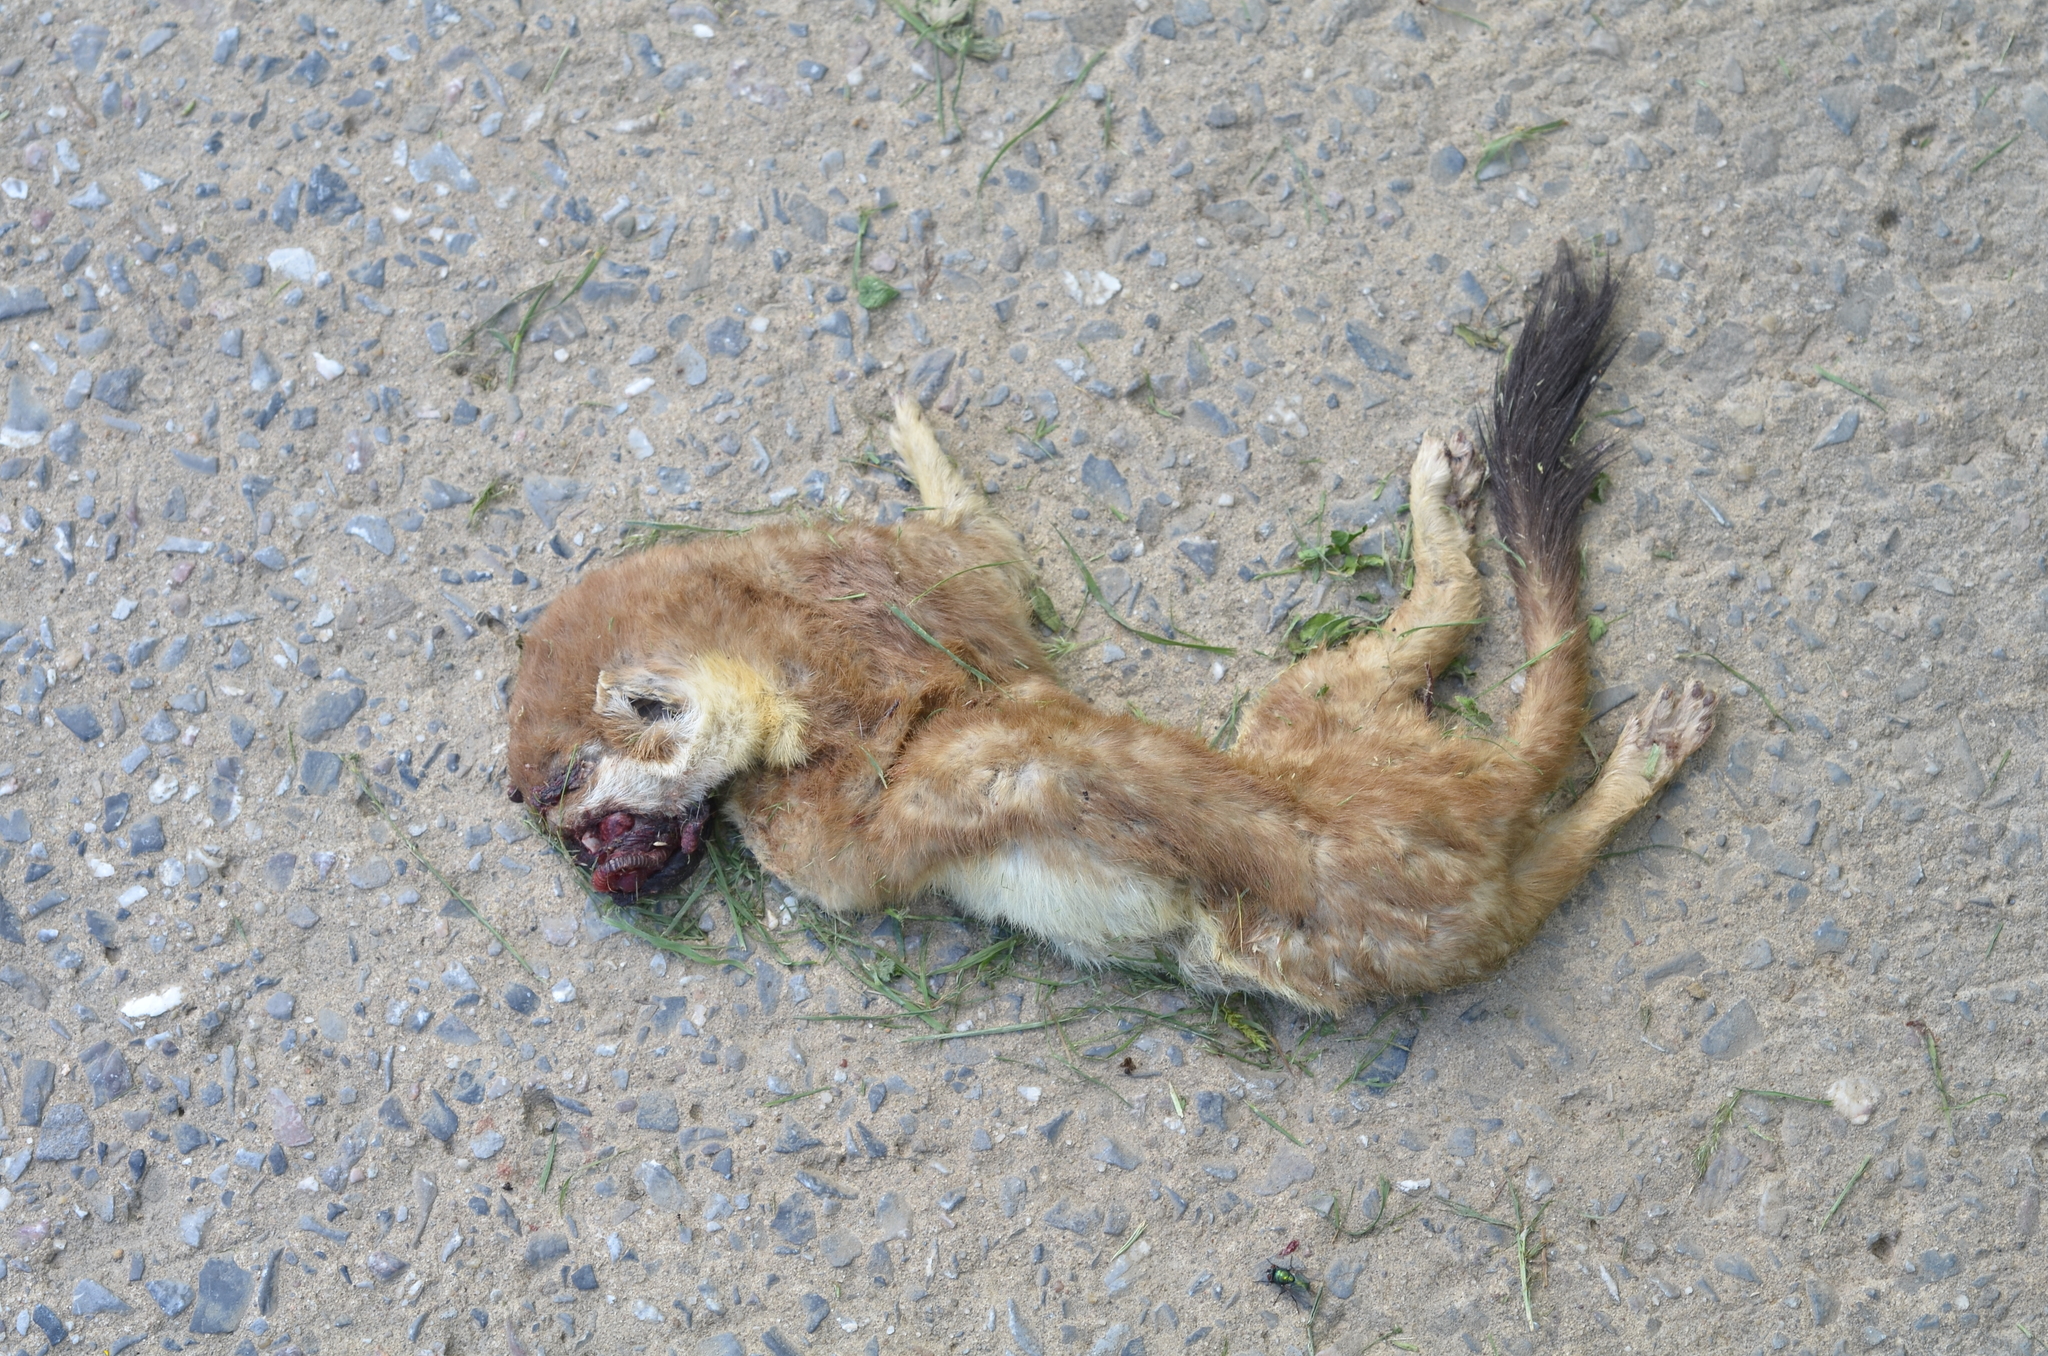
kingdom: Animalia
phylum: Chordata
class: Mammalia
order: Carnivora
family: Mustelidae
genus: Mustela
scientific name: Mustela erminea
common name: Stoat
